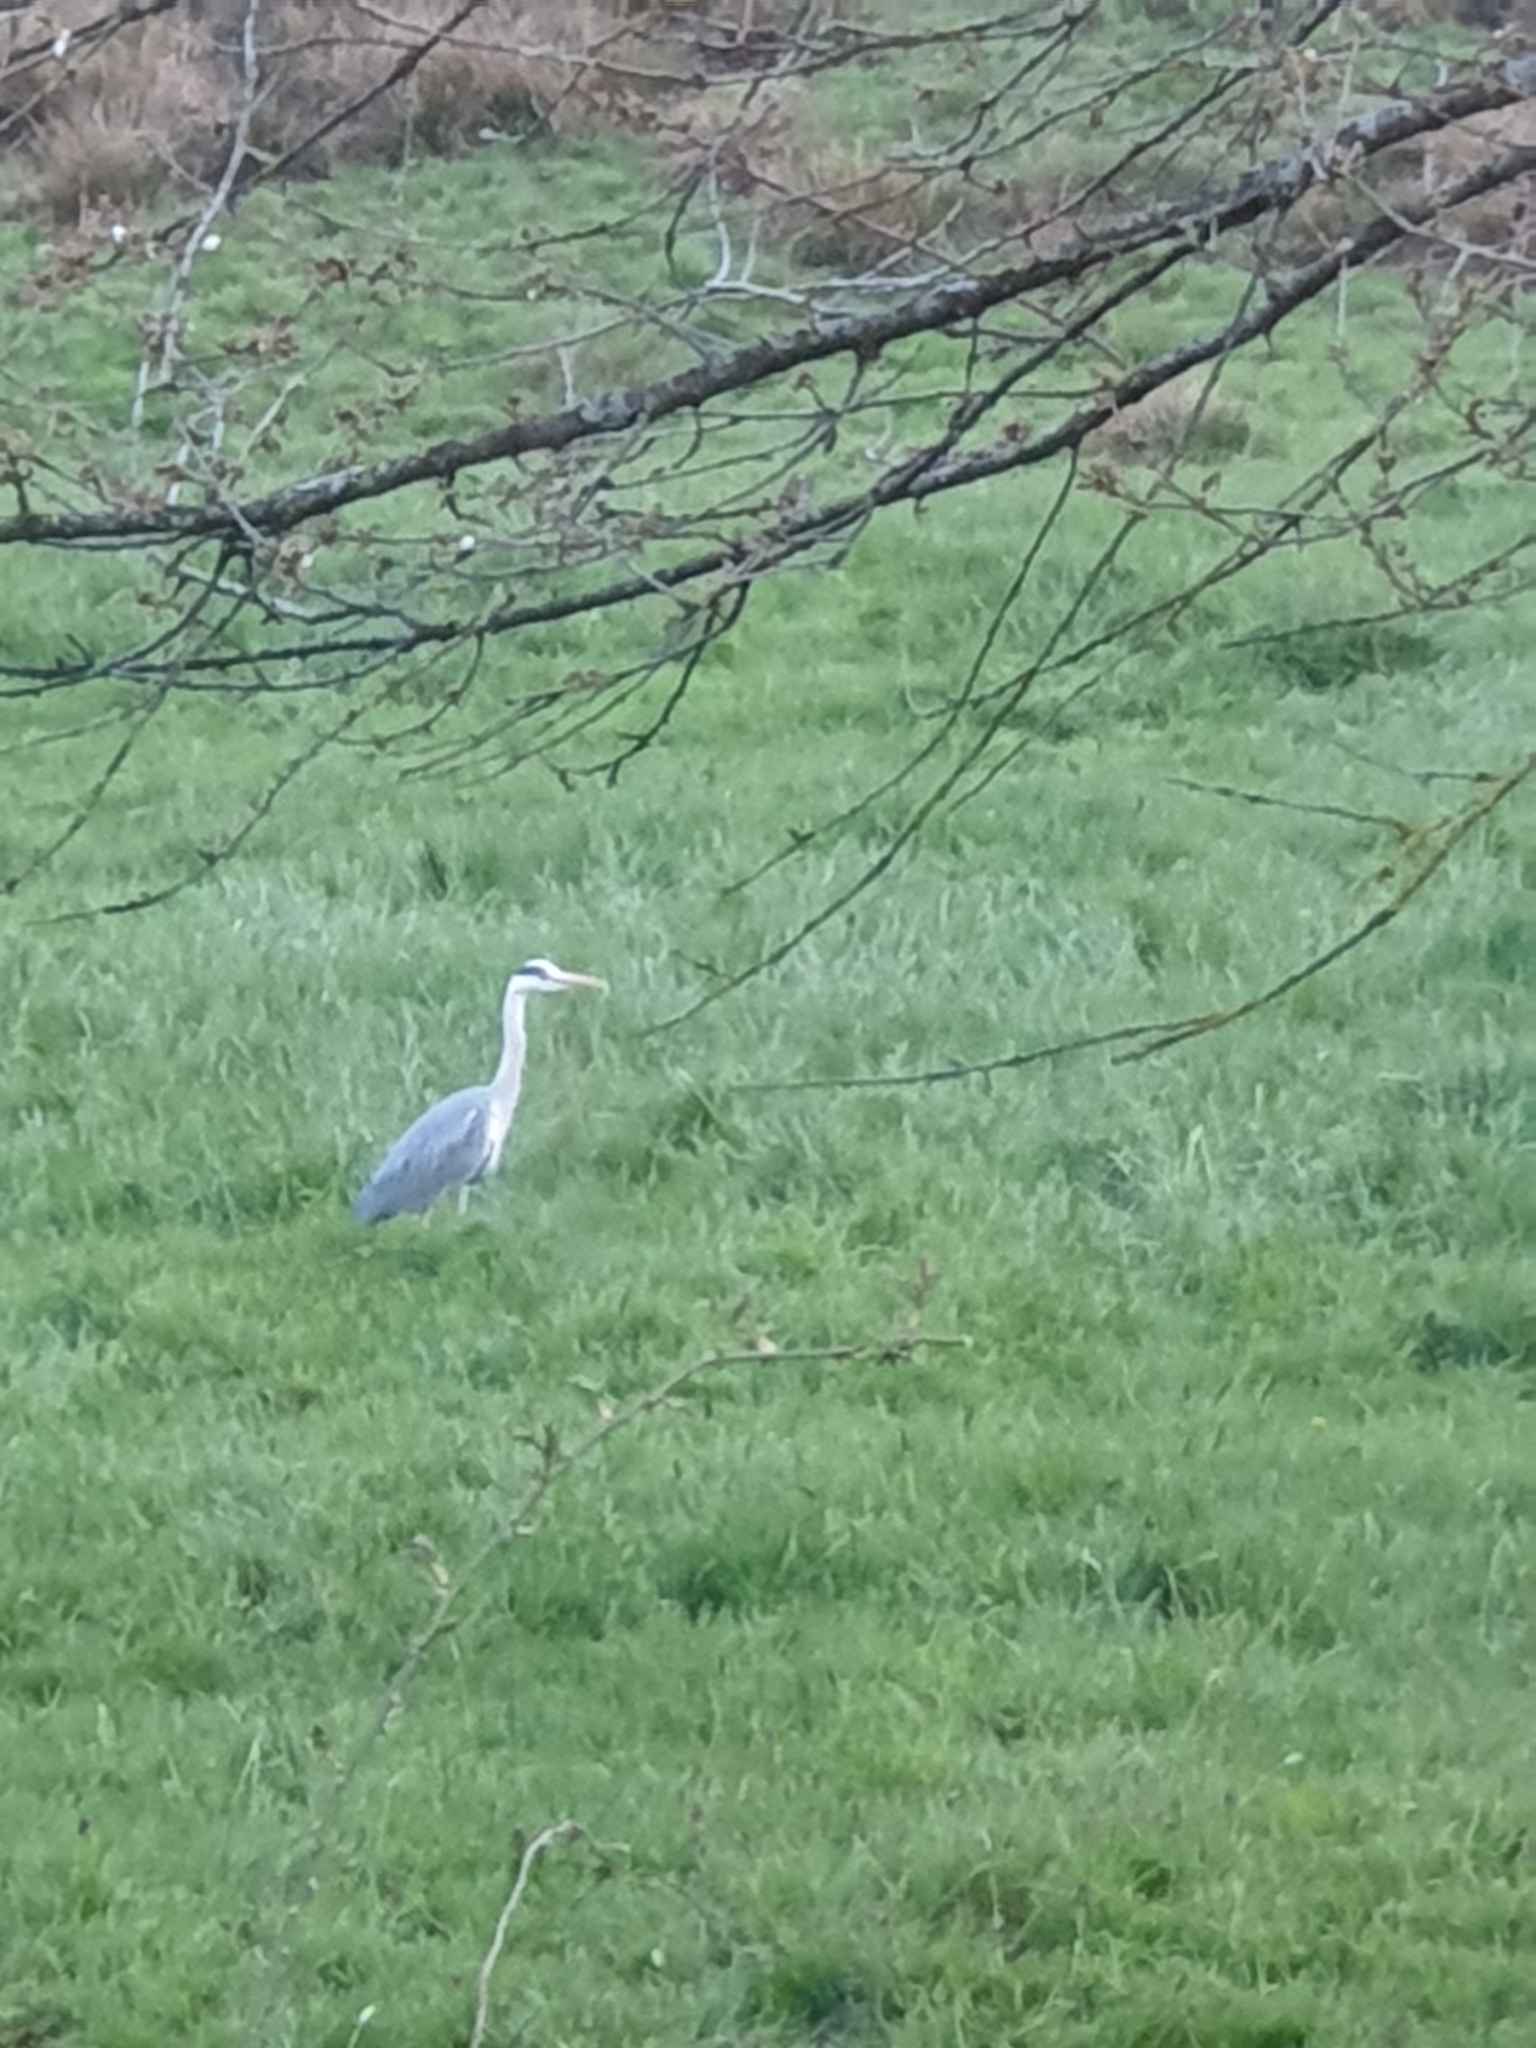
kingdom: Animalia
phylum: Chordata
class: Aves
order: Pelecaniformes
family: Ardeidae
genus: Ardea
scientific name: Ardea cinerea
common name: Grey heron
